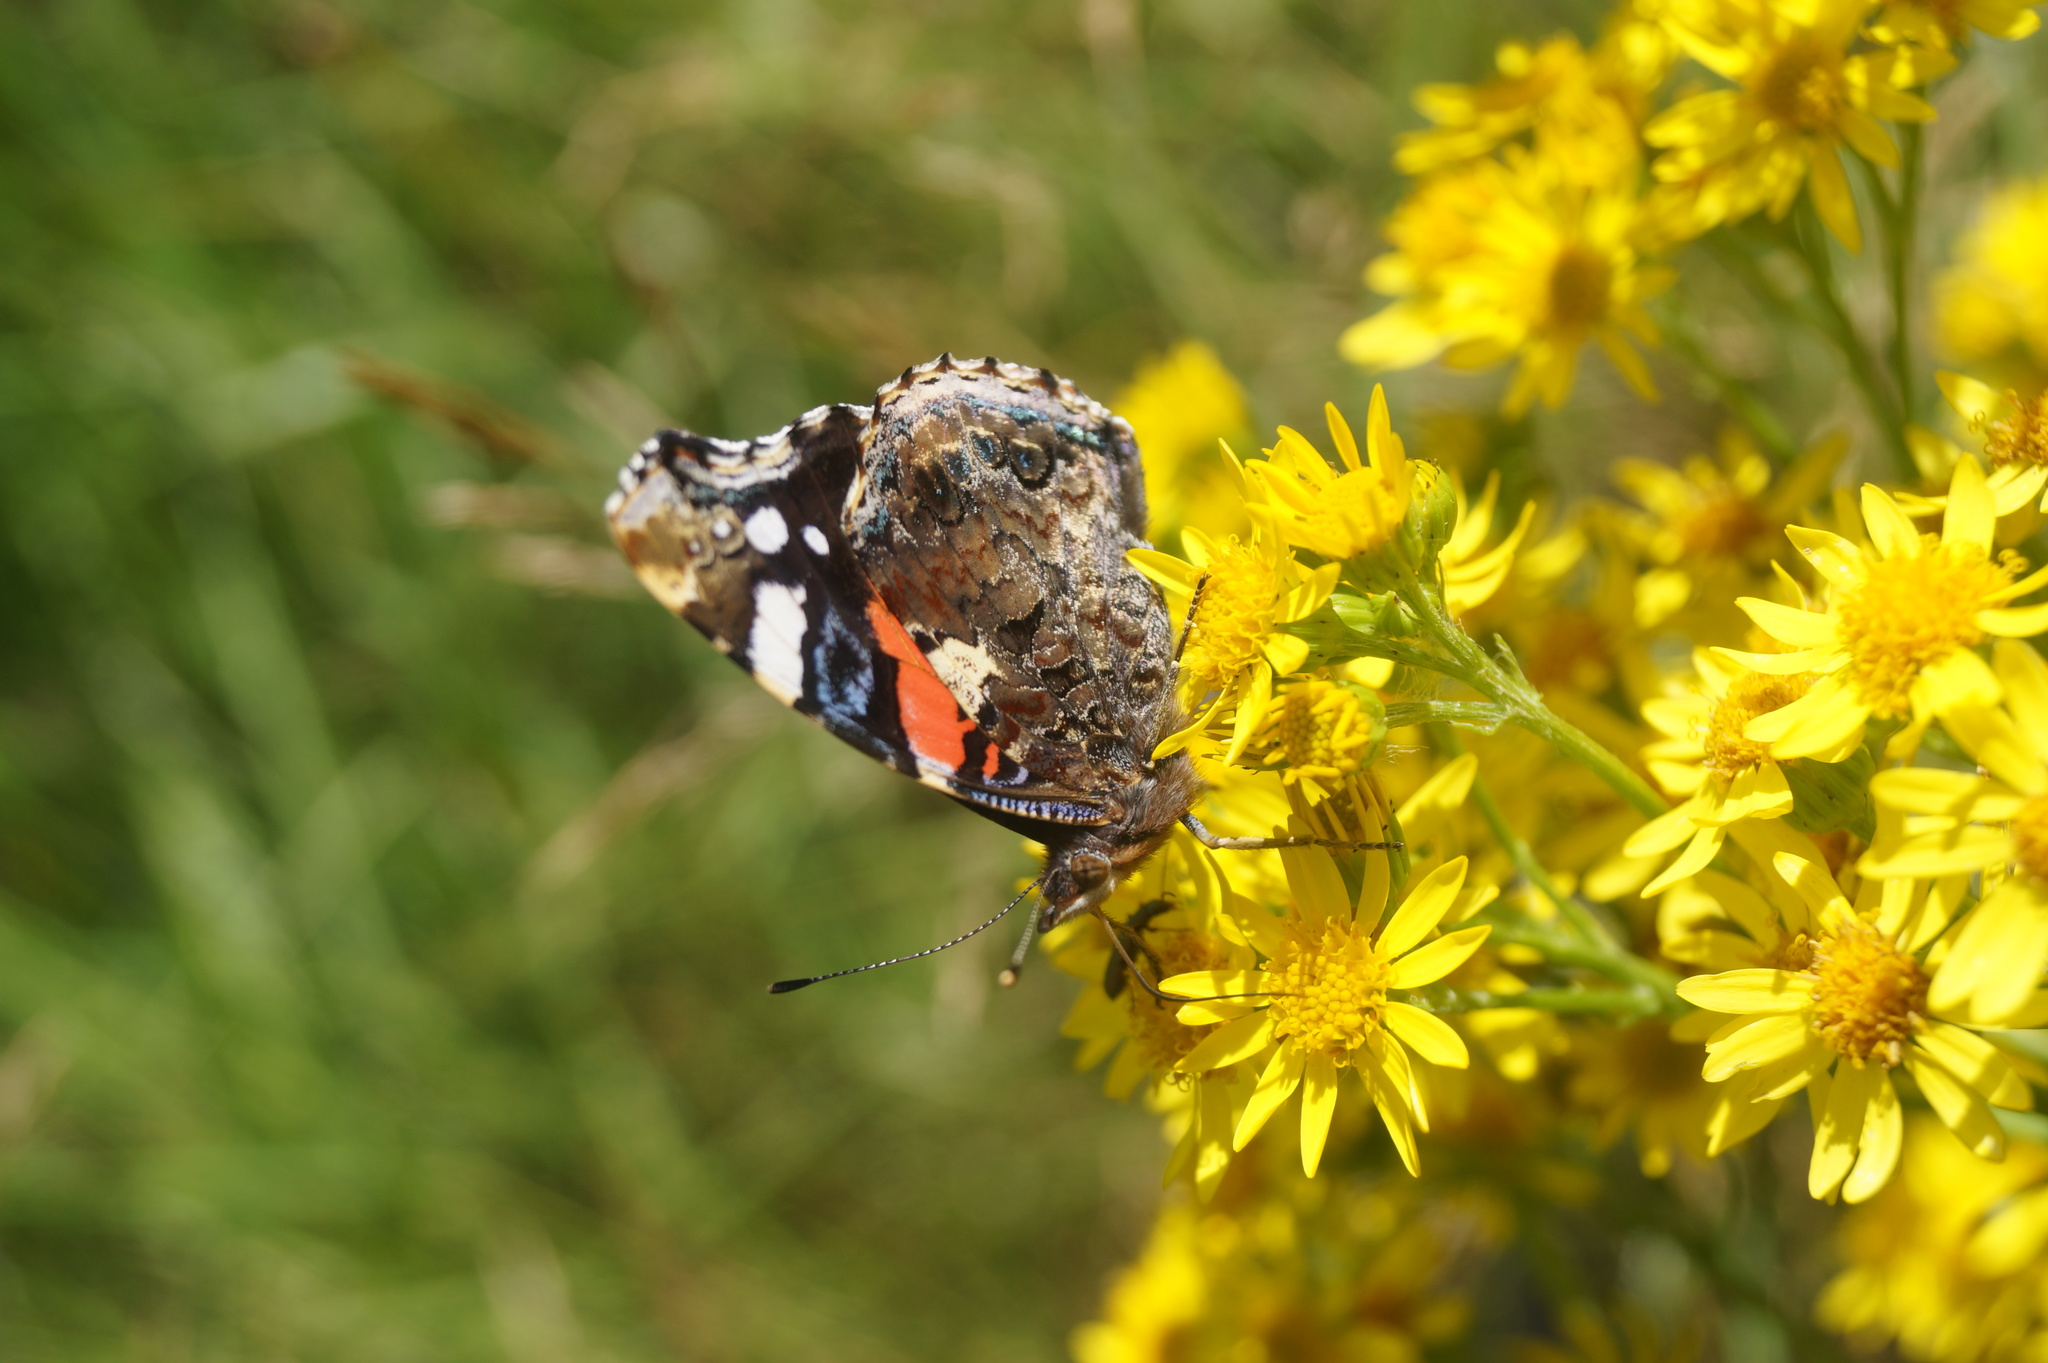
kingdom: Animalia
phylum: Arthropoda
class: Insecta
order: Lepidoptera
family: Nymphalidae
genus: Vanessa
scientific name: Vanessa atalanta
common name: Red admiral
